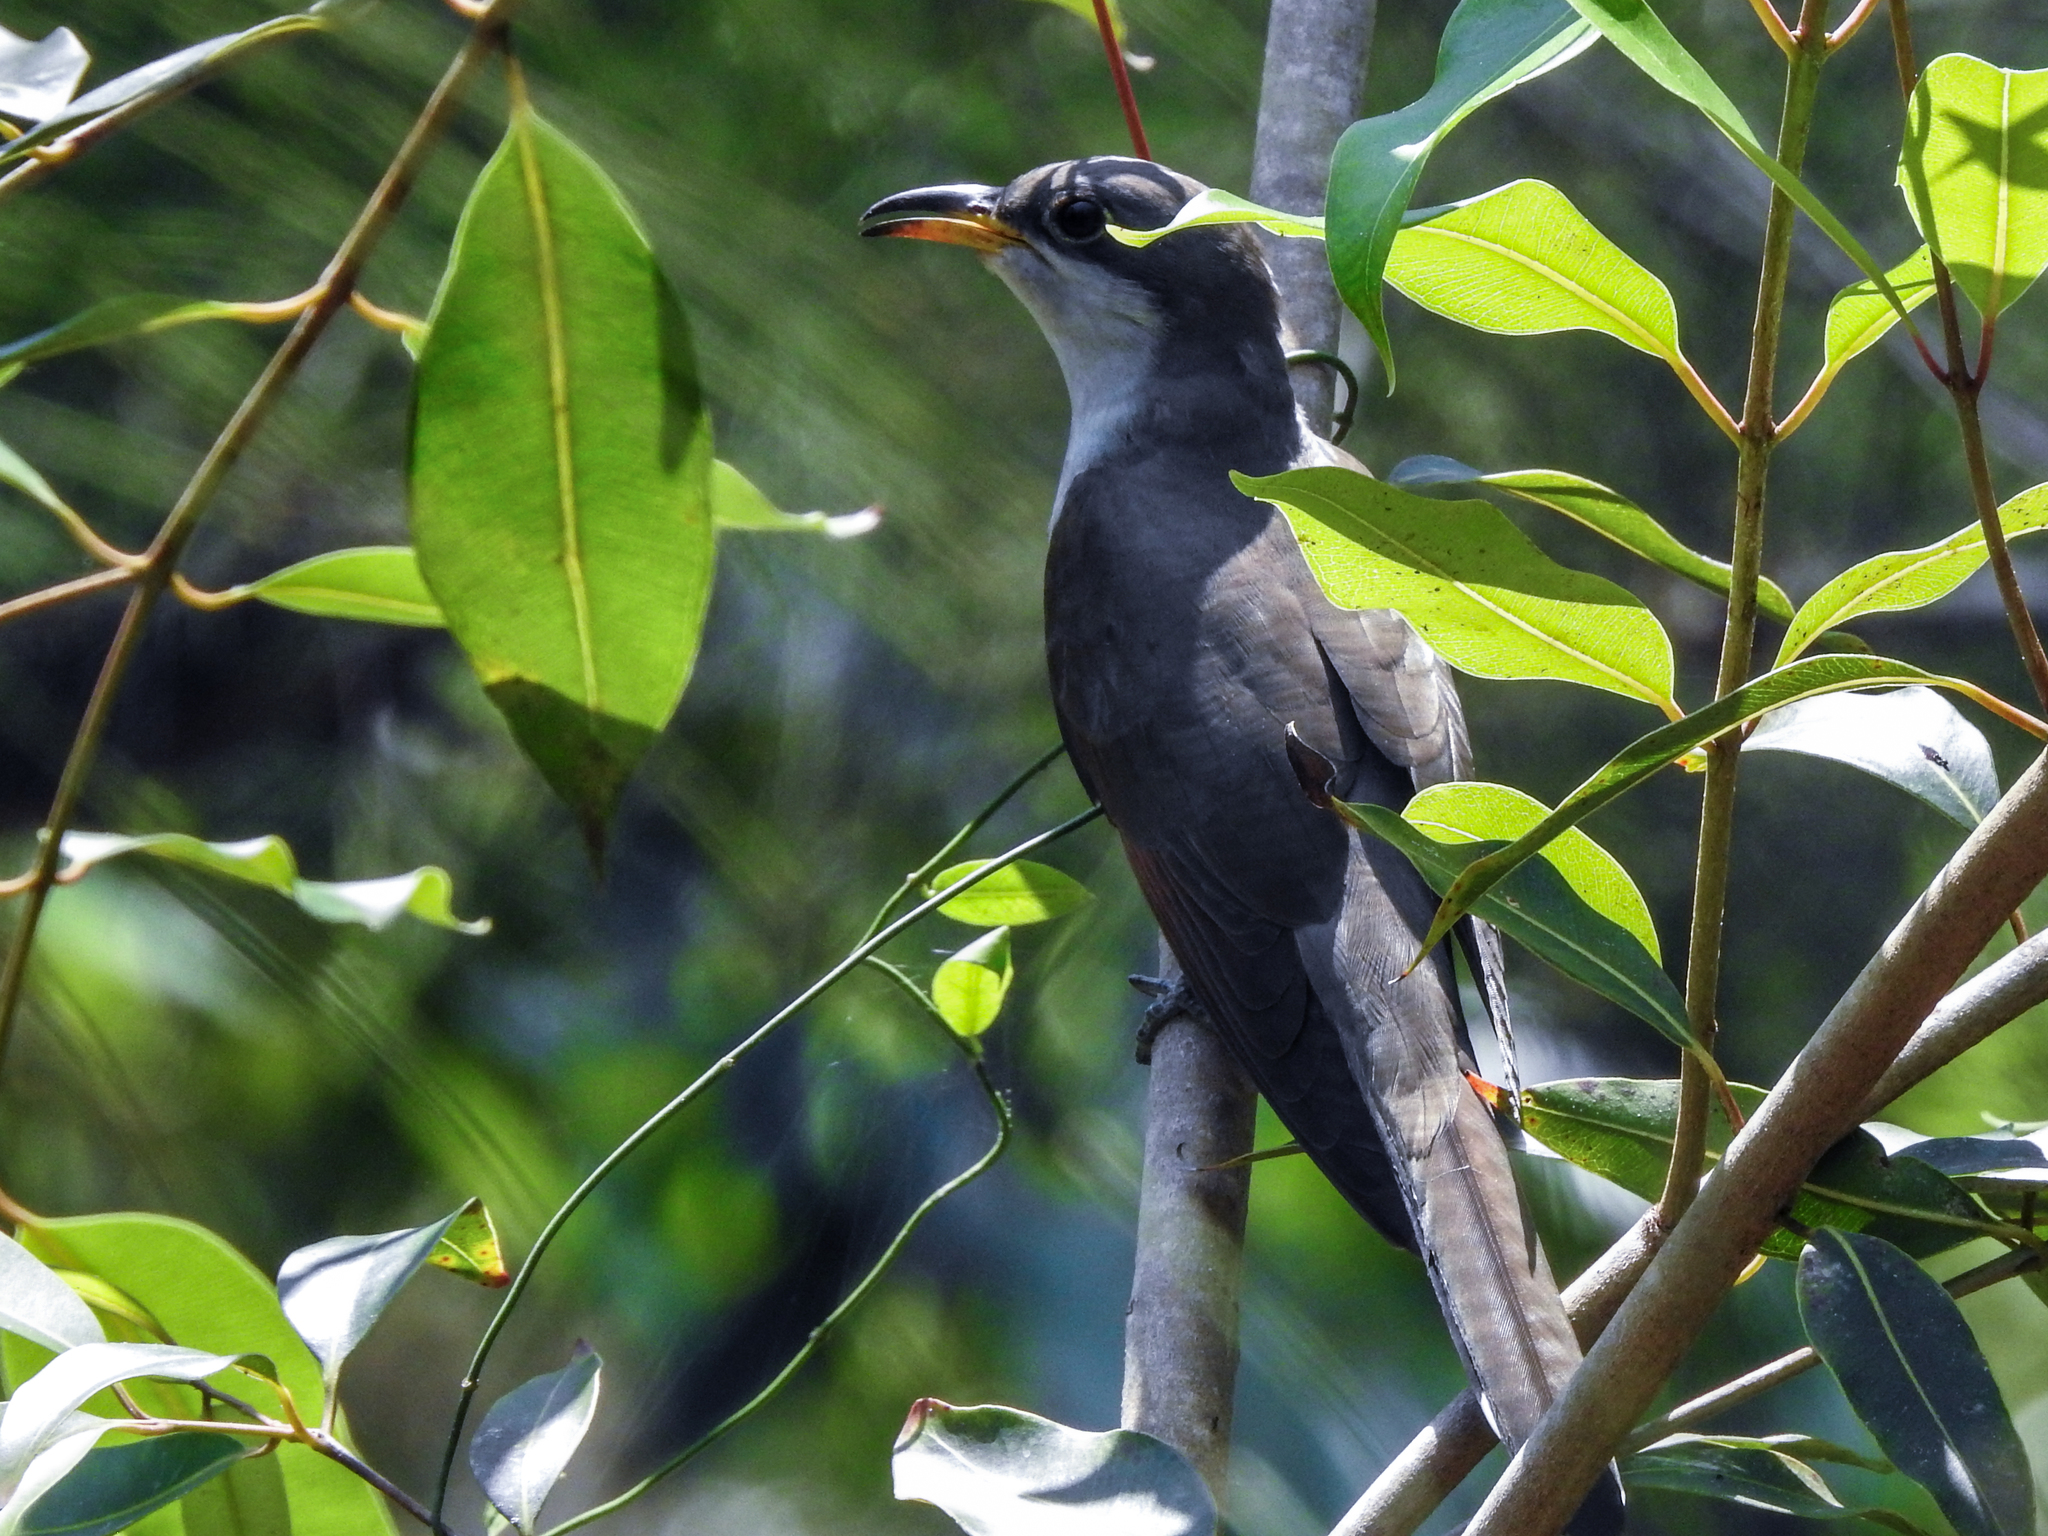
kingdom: Animalia
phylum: Chordata
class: Aves
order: Cuculiformes
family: Cuculidae
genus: Coccyzus
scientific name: Coccyzus americanus
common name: Yellow-billed cuckoo
